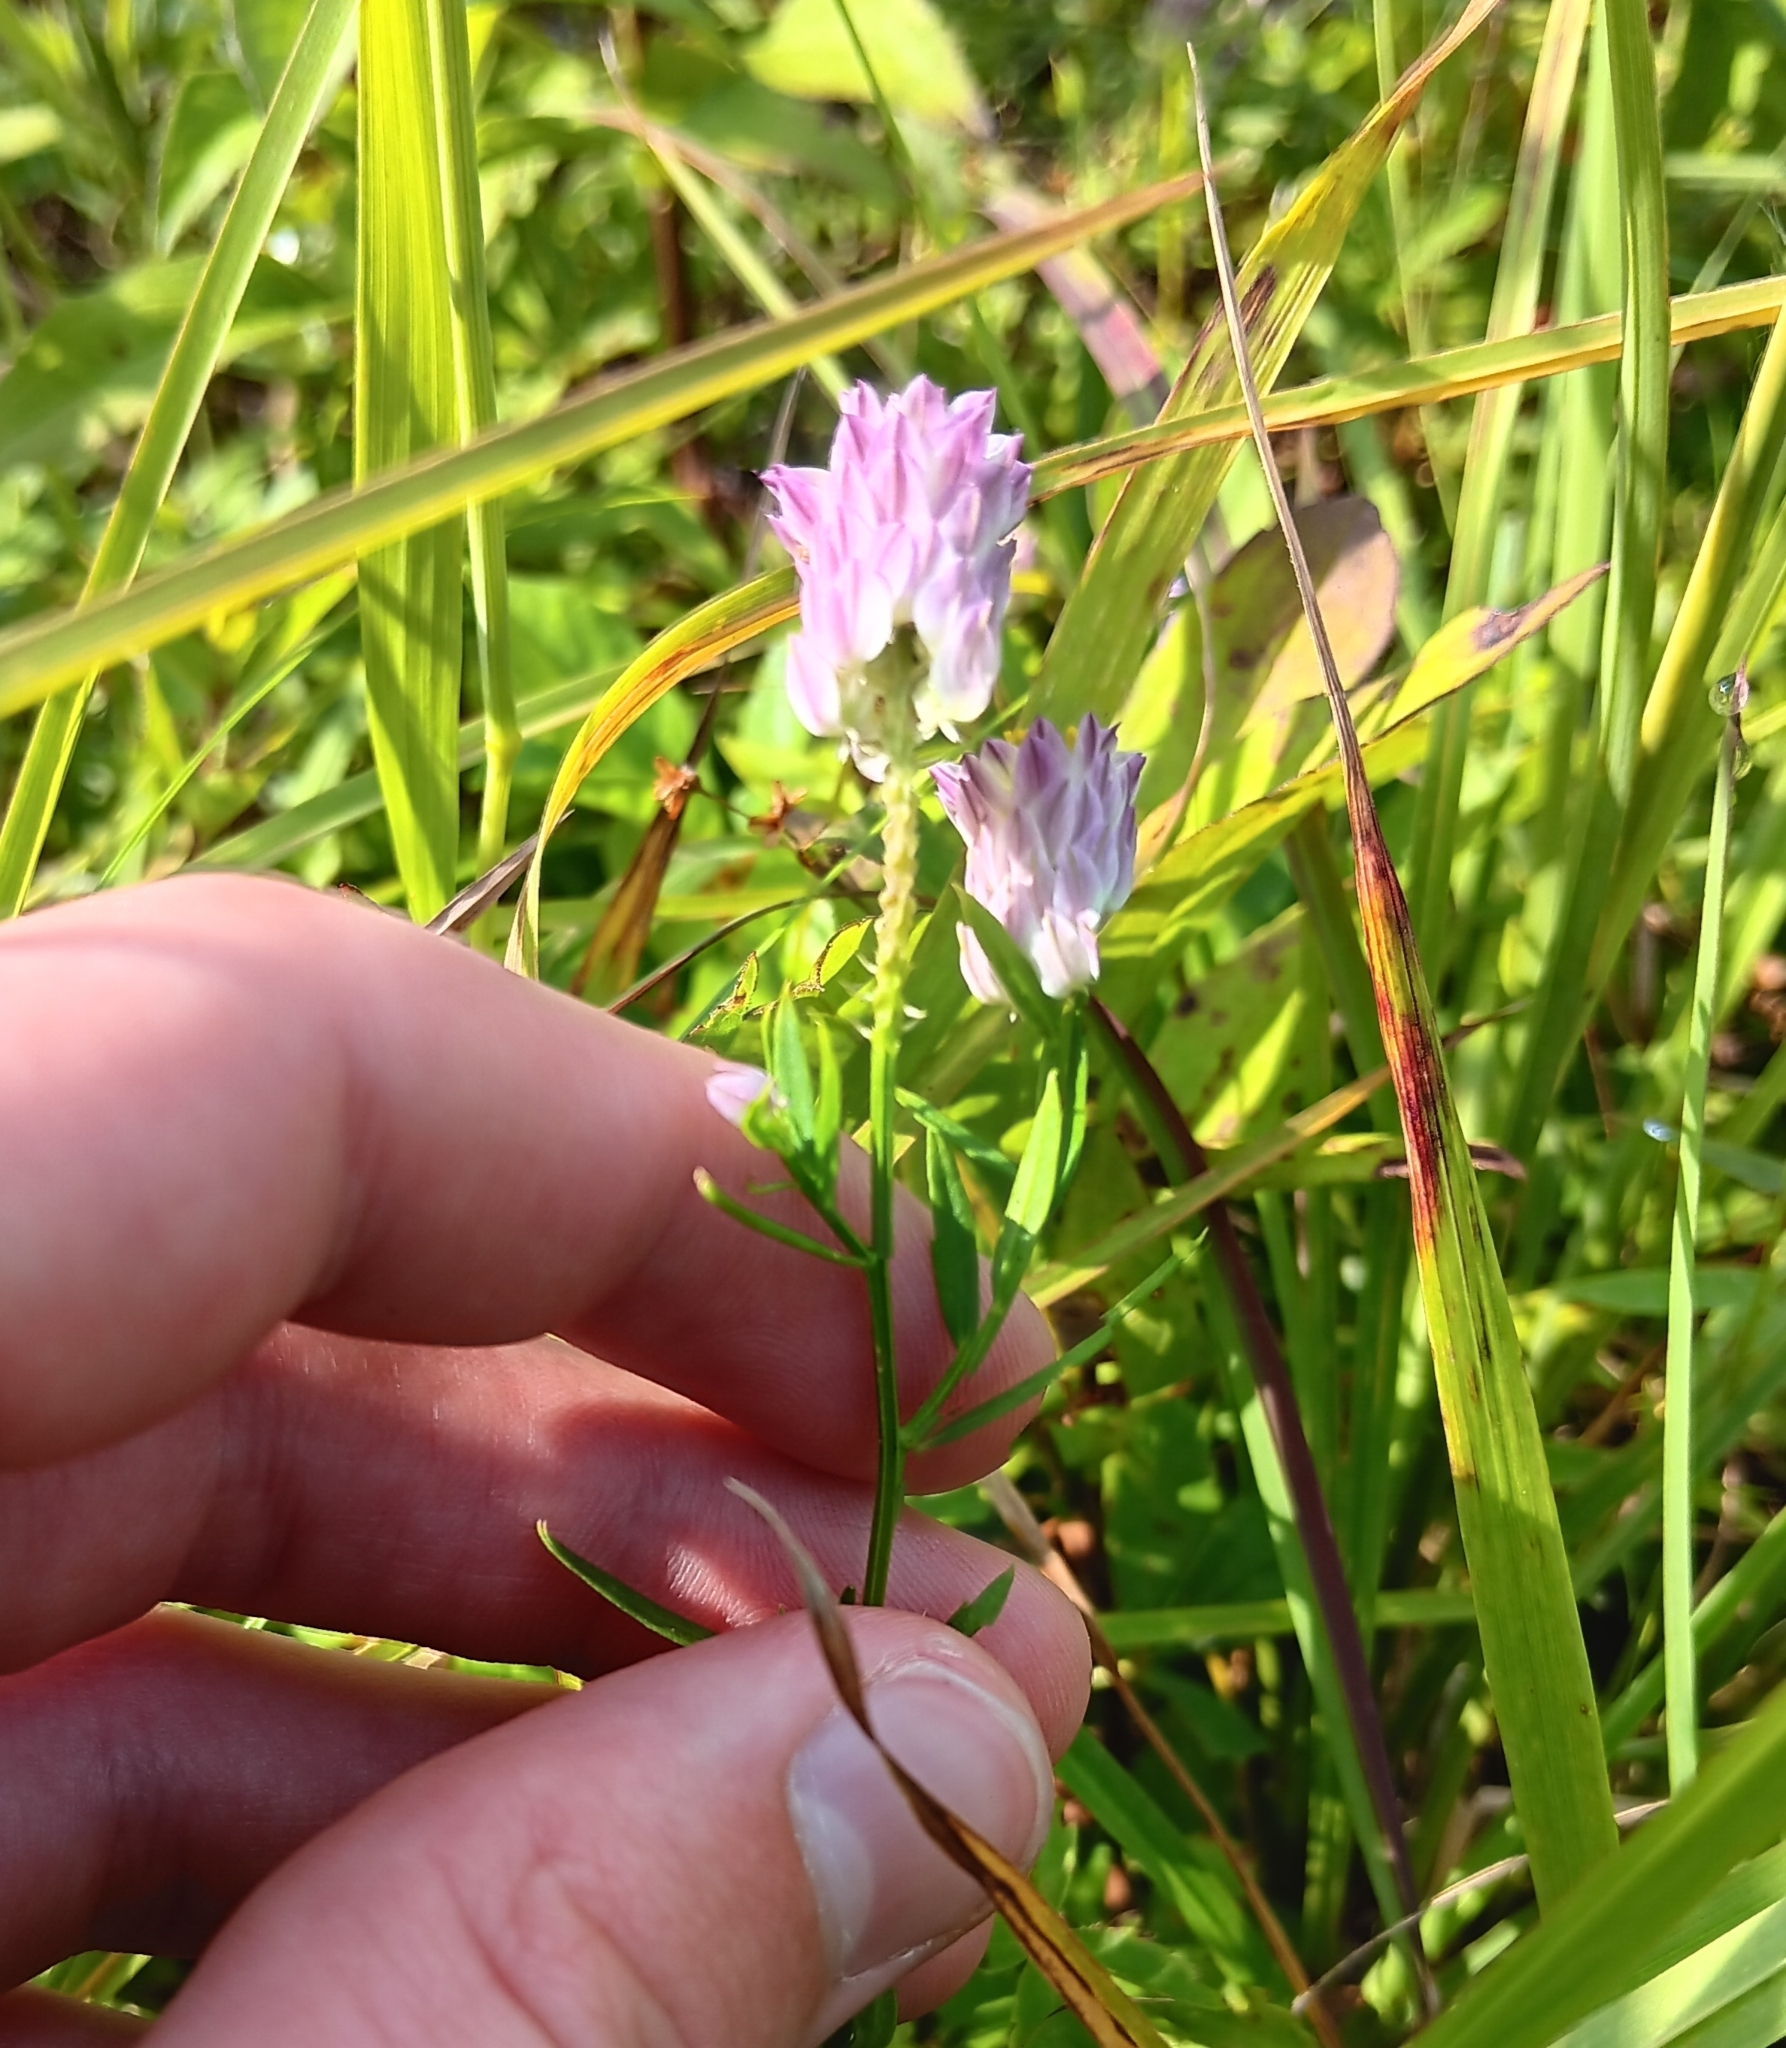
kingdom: Plantae
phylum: Tracheophyta
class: Magnoliopsida
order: Fabales
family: Polygalaceae
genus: Polygala
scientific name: Polygala sanguinea
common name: Blood milkwort
